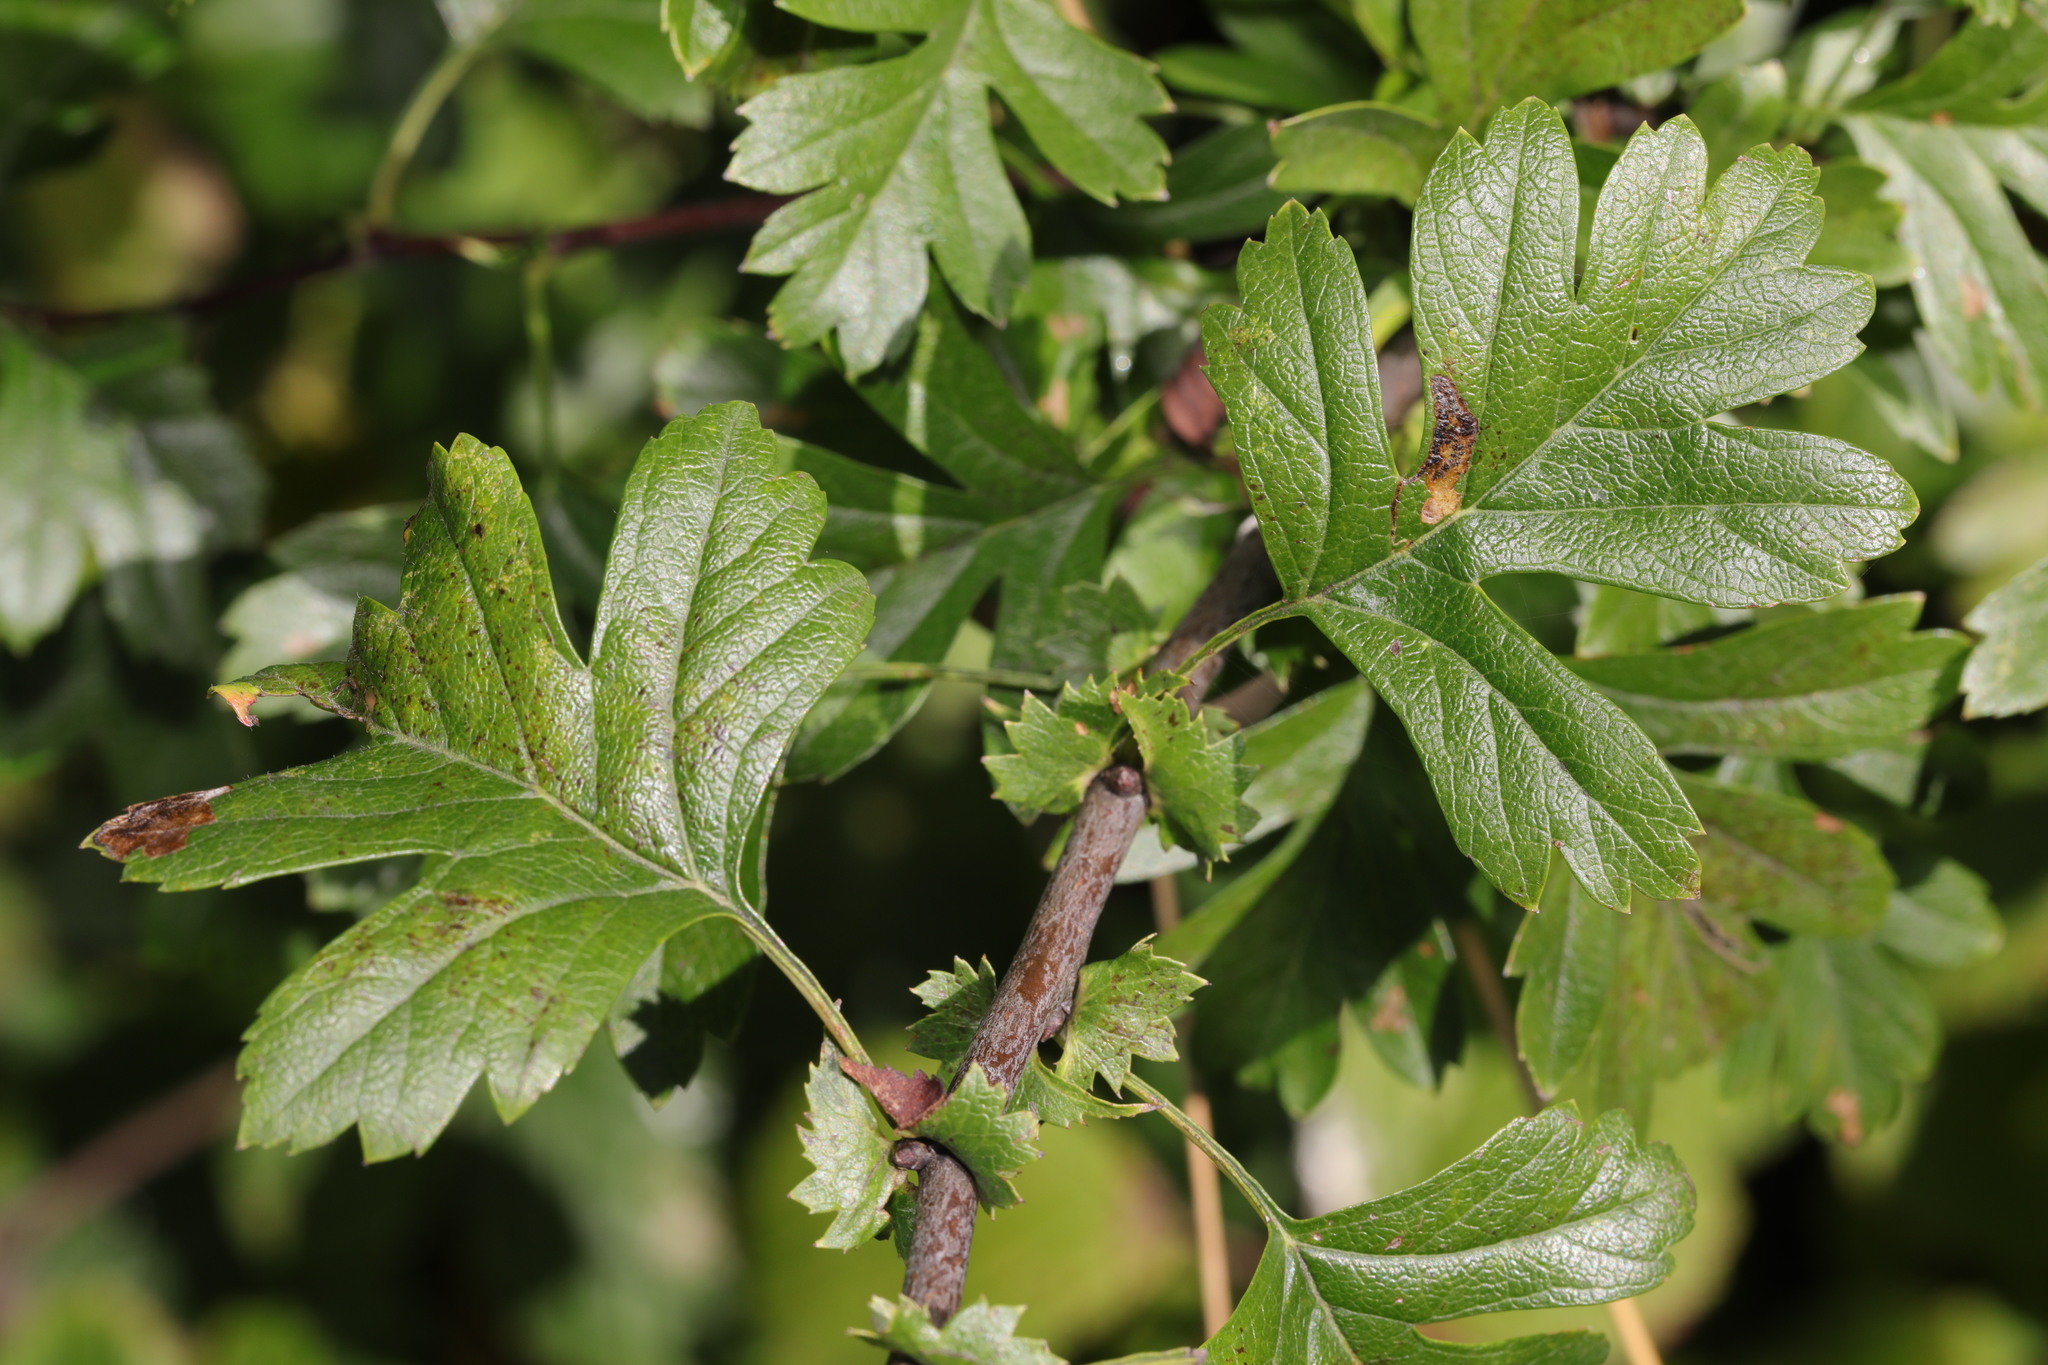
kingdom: Plantae
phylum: Tracheophyta
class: Magnoliopsida
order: Rosales
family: Rosaceae
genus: Crataegus
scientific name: Crataegus monogyna
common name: Hawthorn
